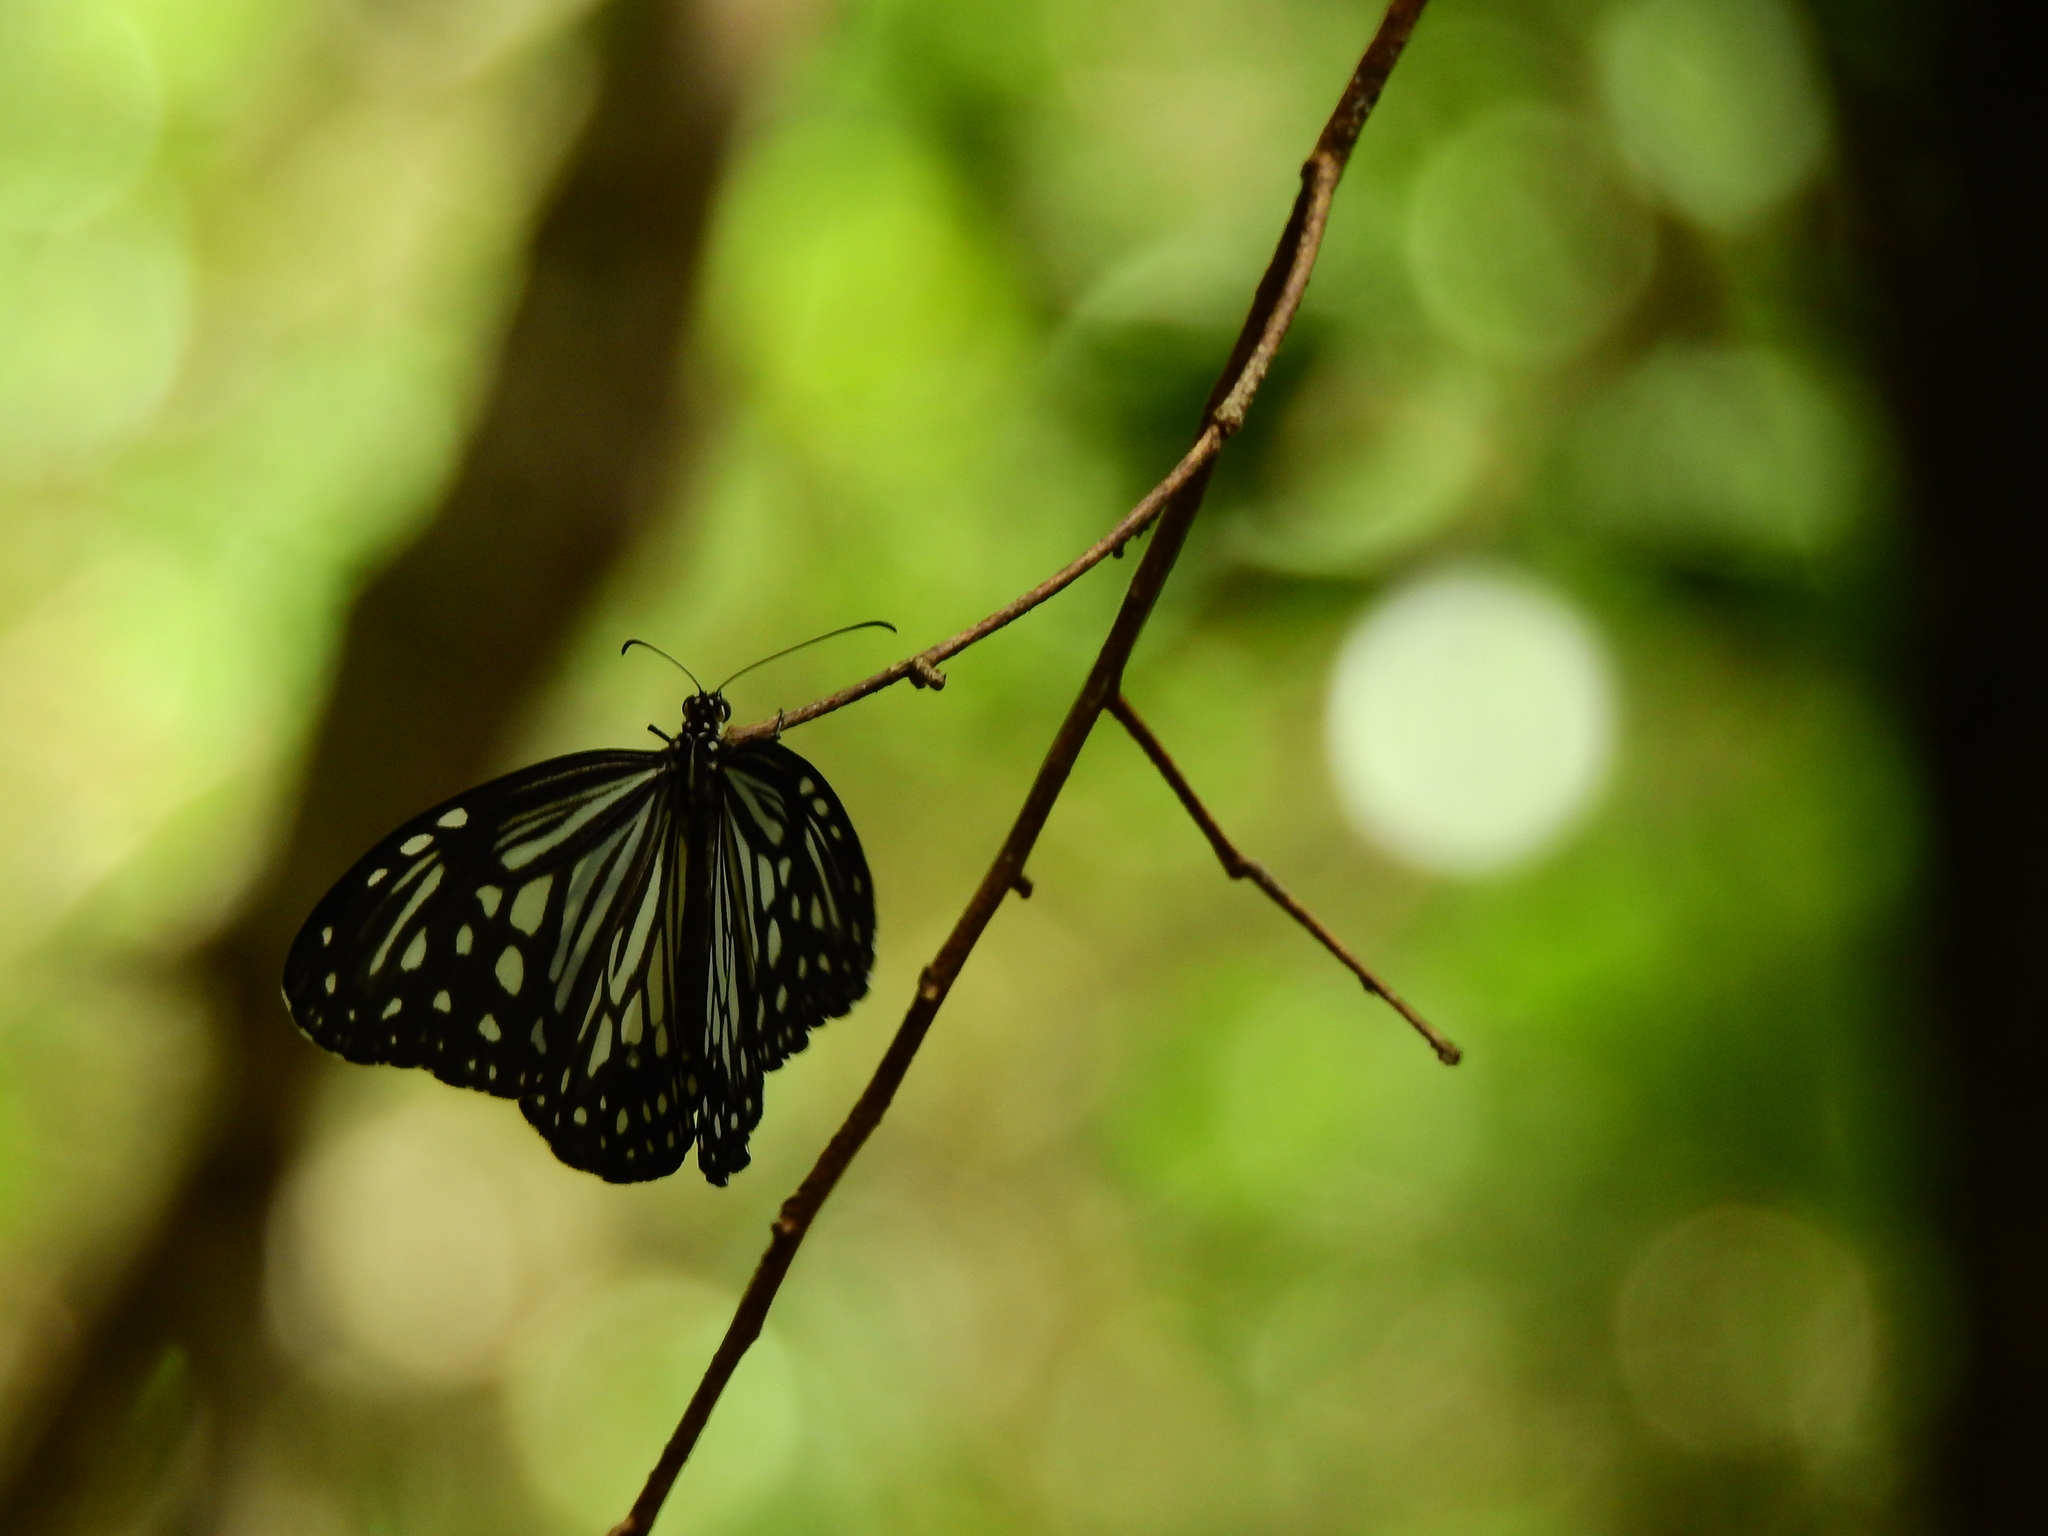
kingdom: Animalia
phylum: Arthropoda
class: Insecta
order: Lepidoptera
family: Nymphalidae
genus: Parantica
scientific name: Parantica aglea
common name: Glassy tiger
